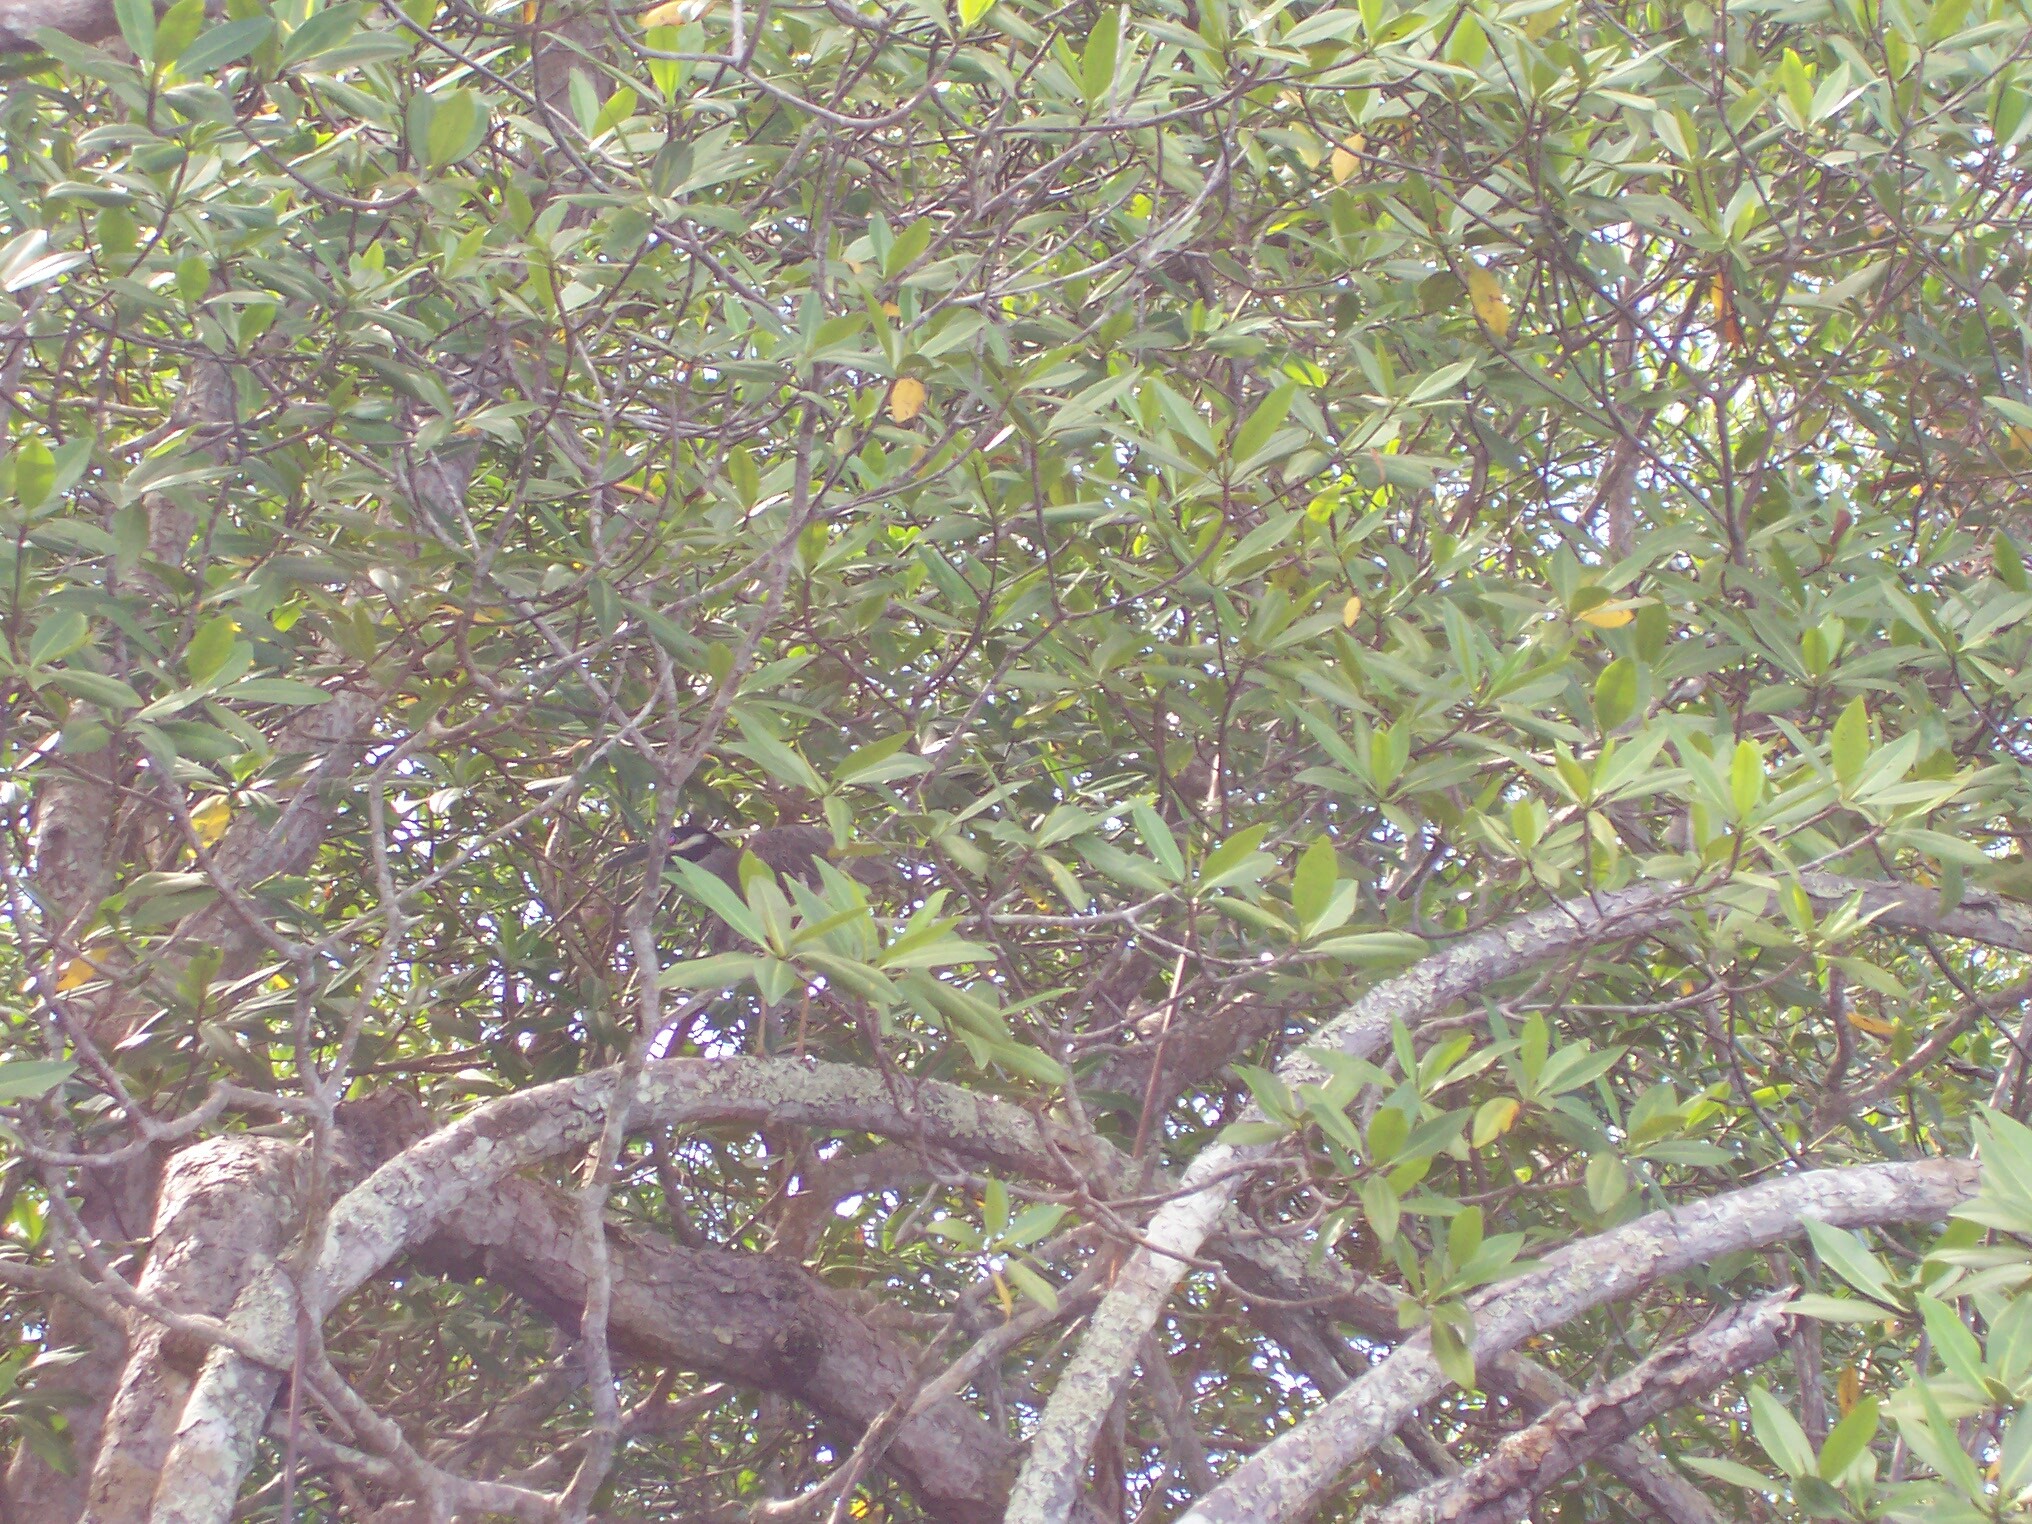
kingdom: Animalia
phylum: Chordata
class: Aves
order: Pelecaniformes
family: Ardeidae
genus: Nyctanassa
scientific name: Nyctanassa violacea
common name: Yellow-crowned night heron
